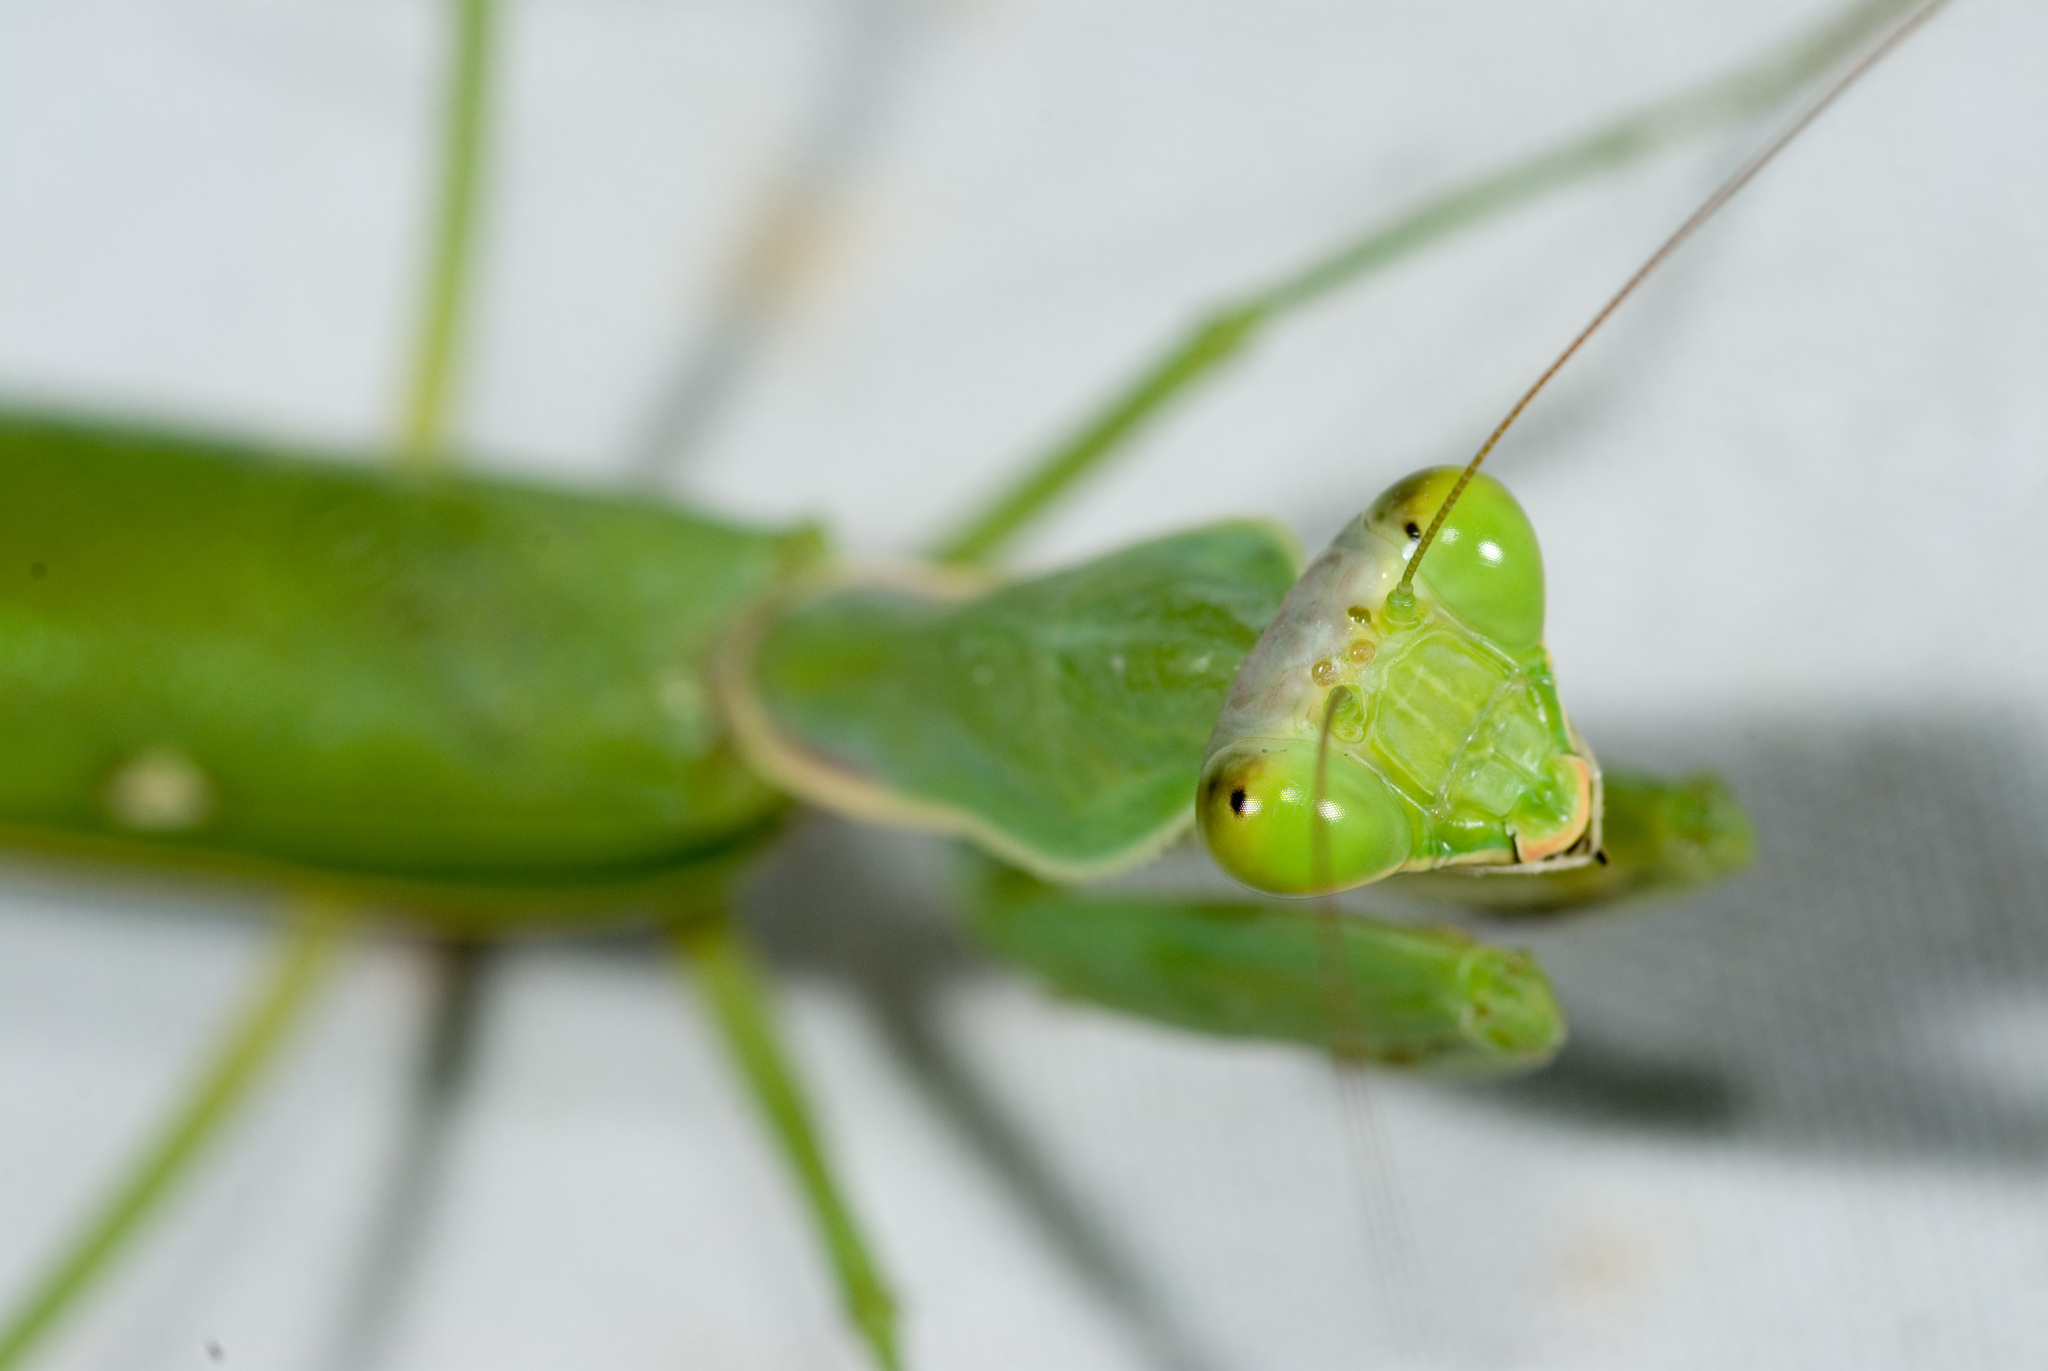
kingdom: Animalia
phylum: Arthropoda
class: Insecta
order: Mantodea
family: Mantidae
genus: Hierodula
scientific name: Hierodula patellifera
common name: Asian mantis
